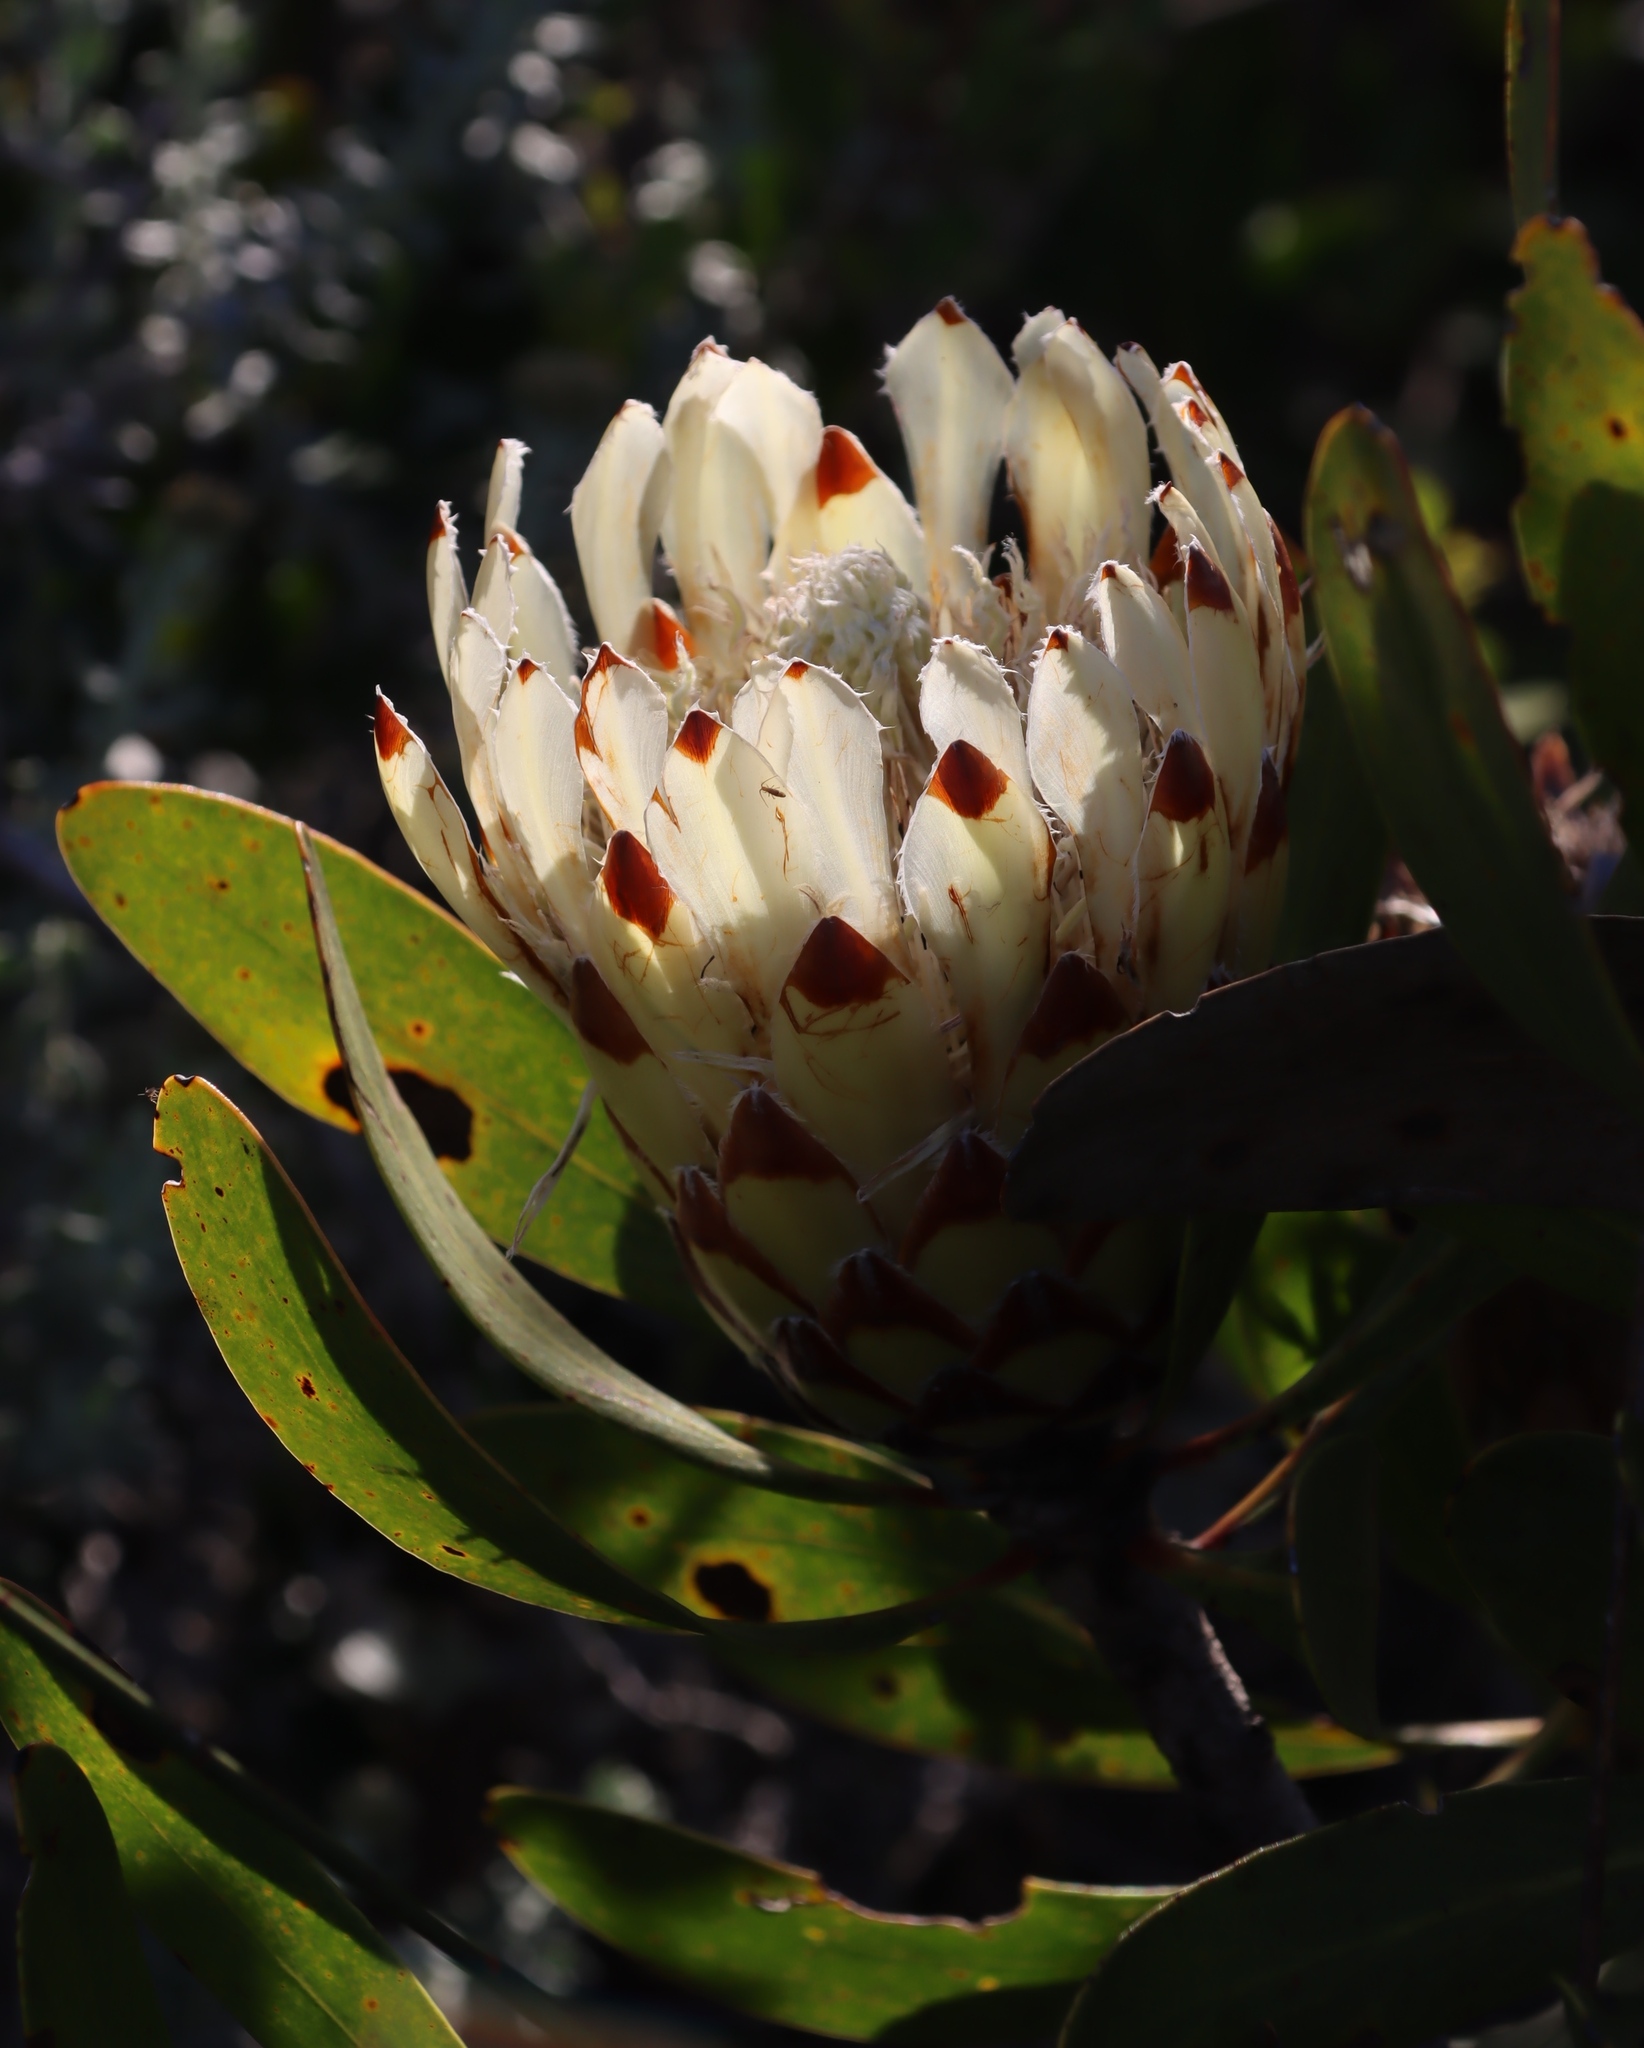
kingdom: Plantae
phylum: Tracheophyta
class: Magnoliopsida
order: Proteales
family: Proteaceae
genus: Protea
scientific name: Protea obtusifolia
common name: Bredasdorp sugarbush
